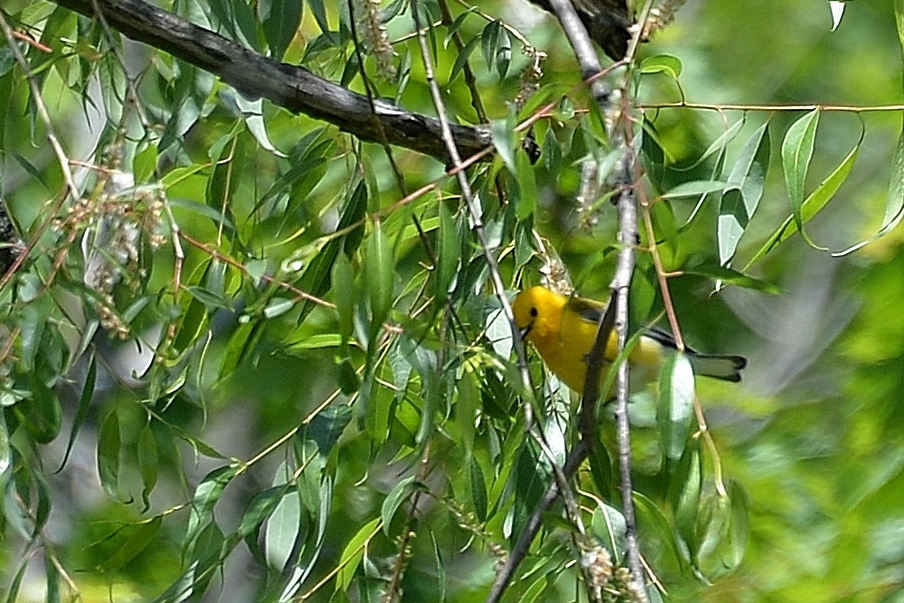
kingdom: Animalia
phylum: Chordata
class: Aves
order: Passeriformes
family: Parulidae
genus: Protonotaria
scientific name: Protonotaria citrea
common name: Prothonotary warbler
